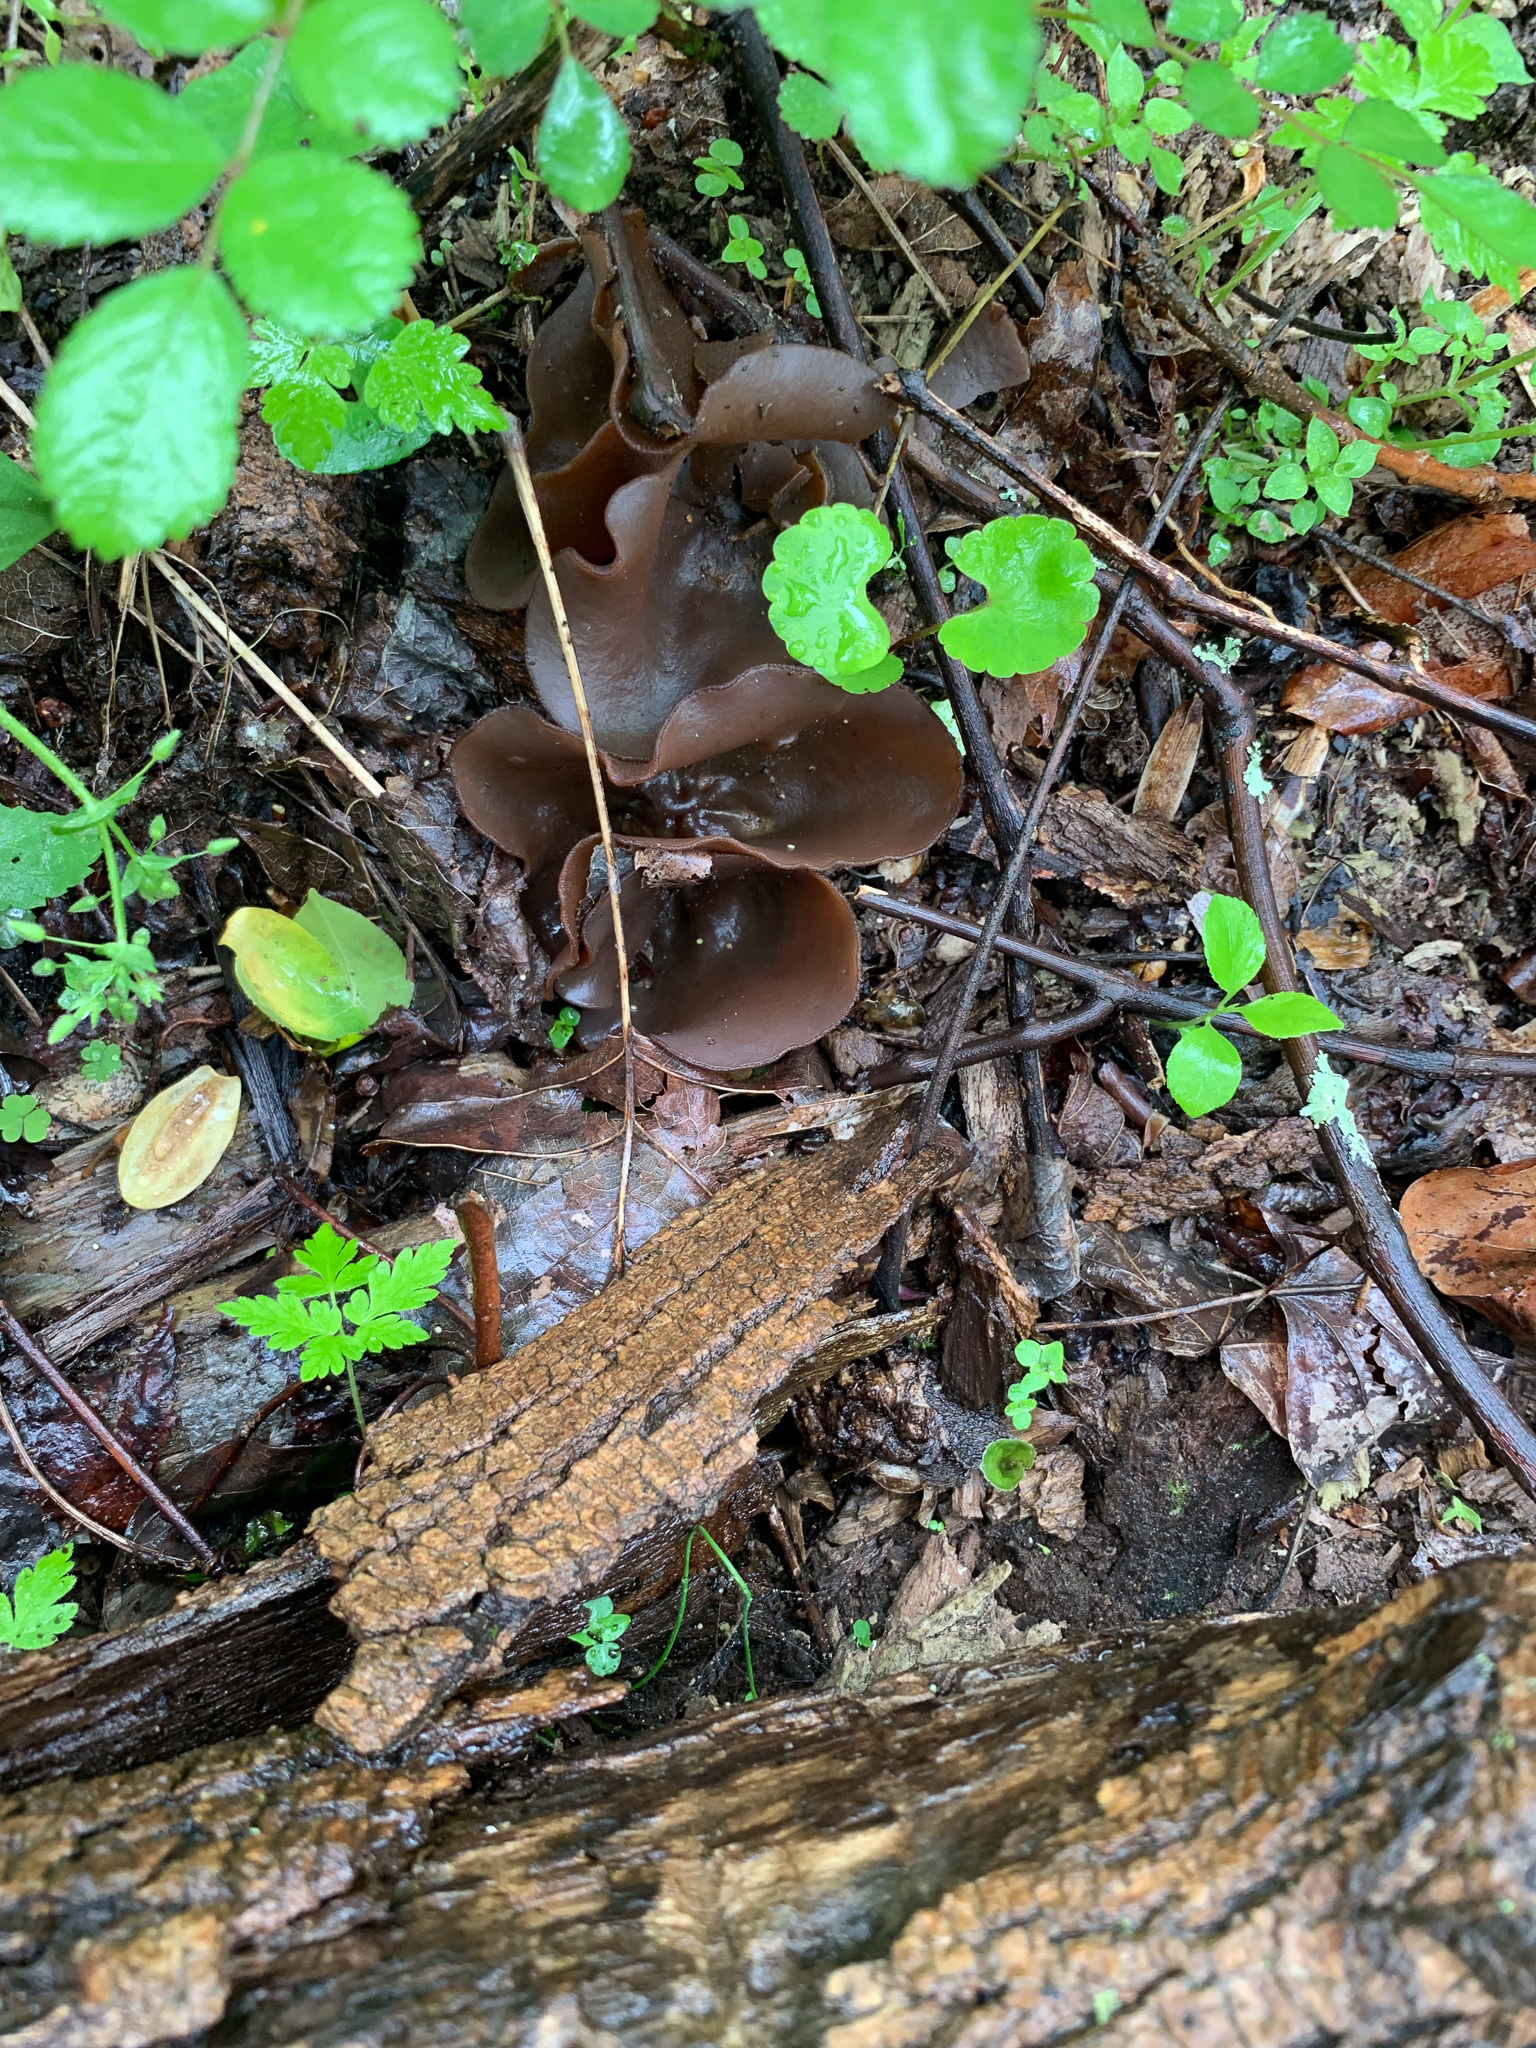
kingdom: Fungi
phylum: Ascomycota
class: Pezizomycetes
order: Pezizales
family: Pezizaceae
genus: Phylloscypha
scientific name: Phylloscypha phyllogena
